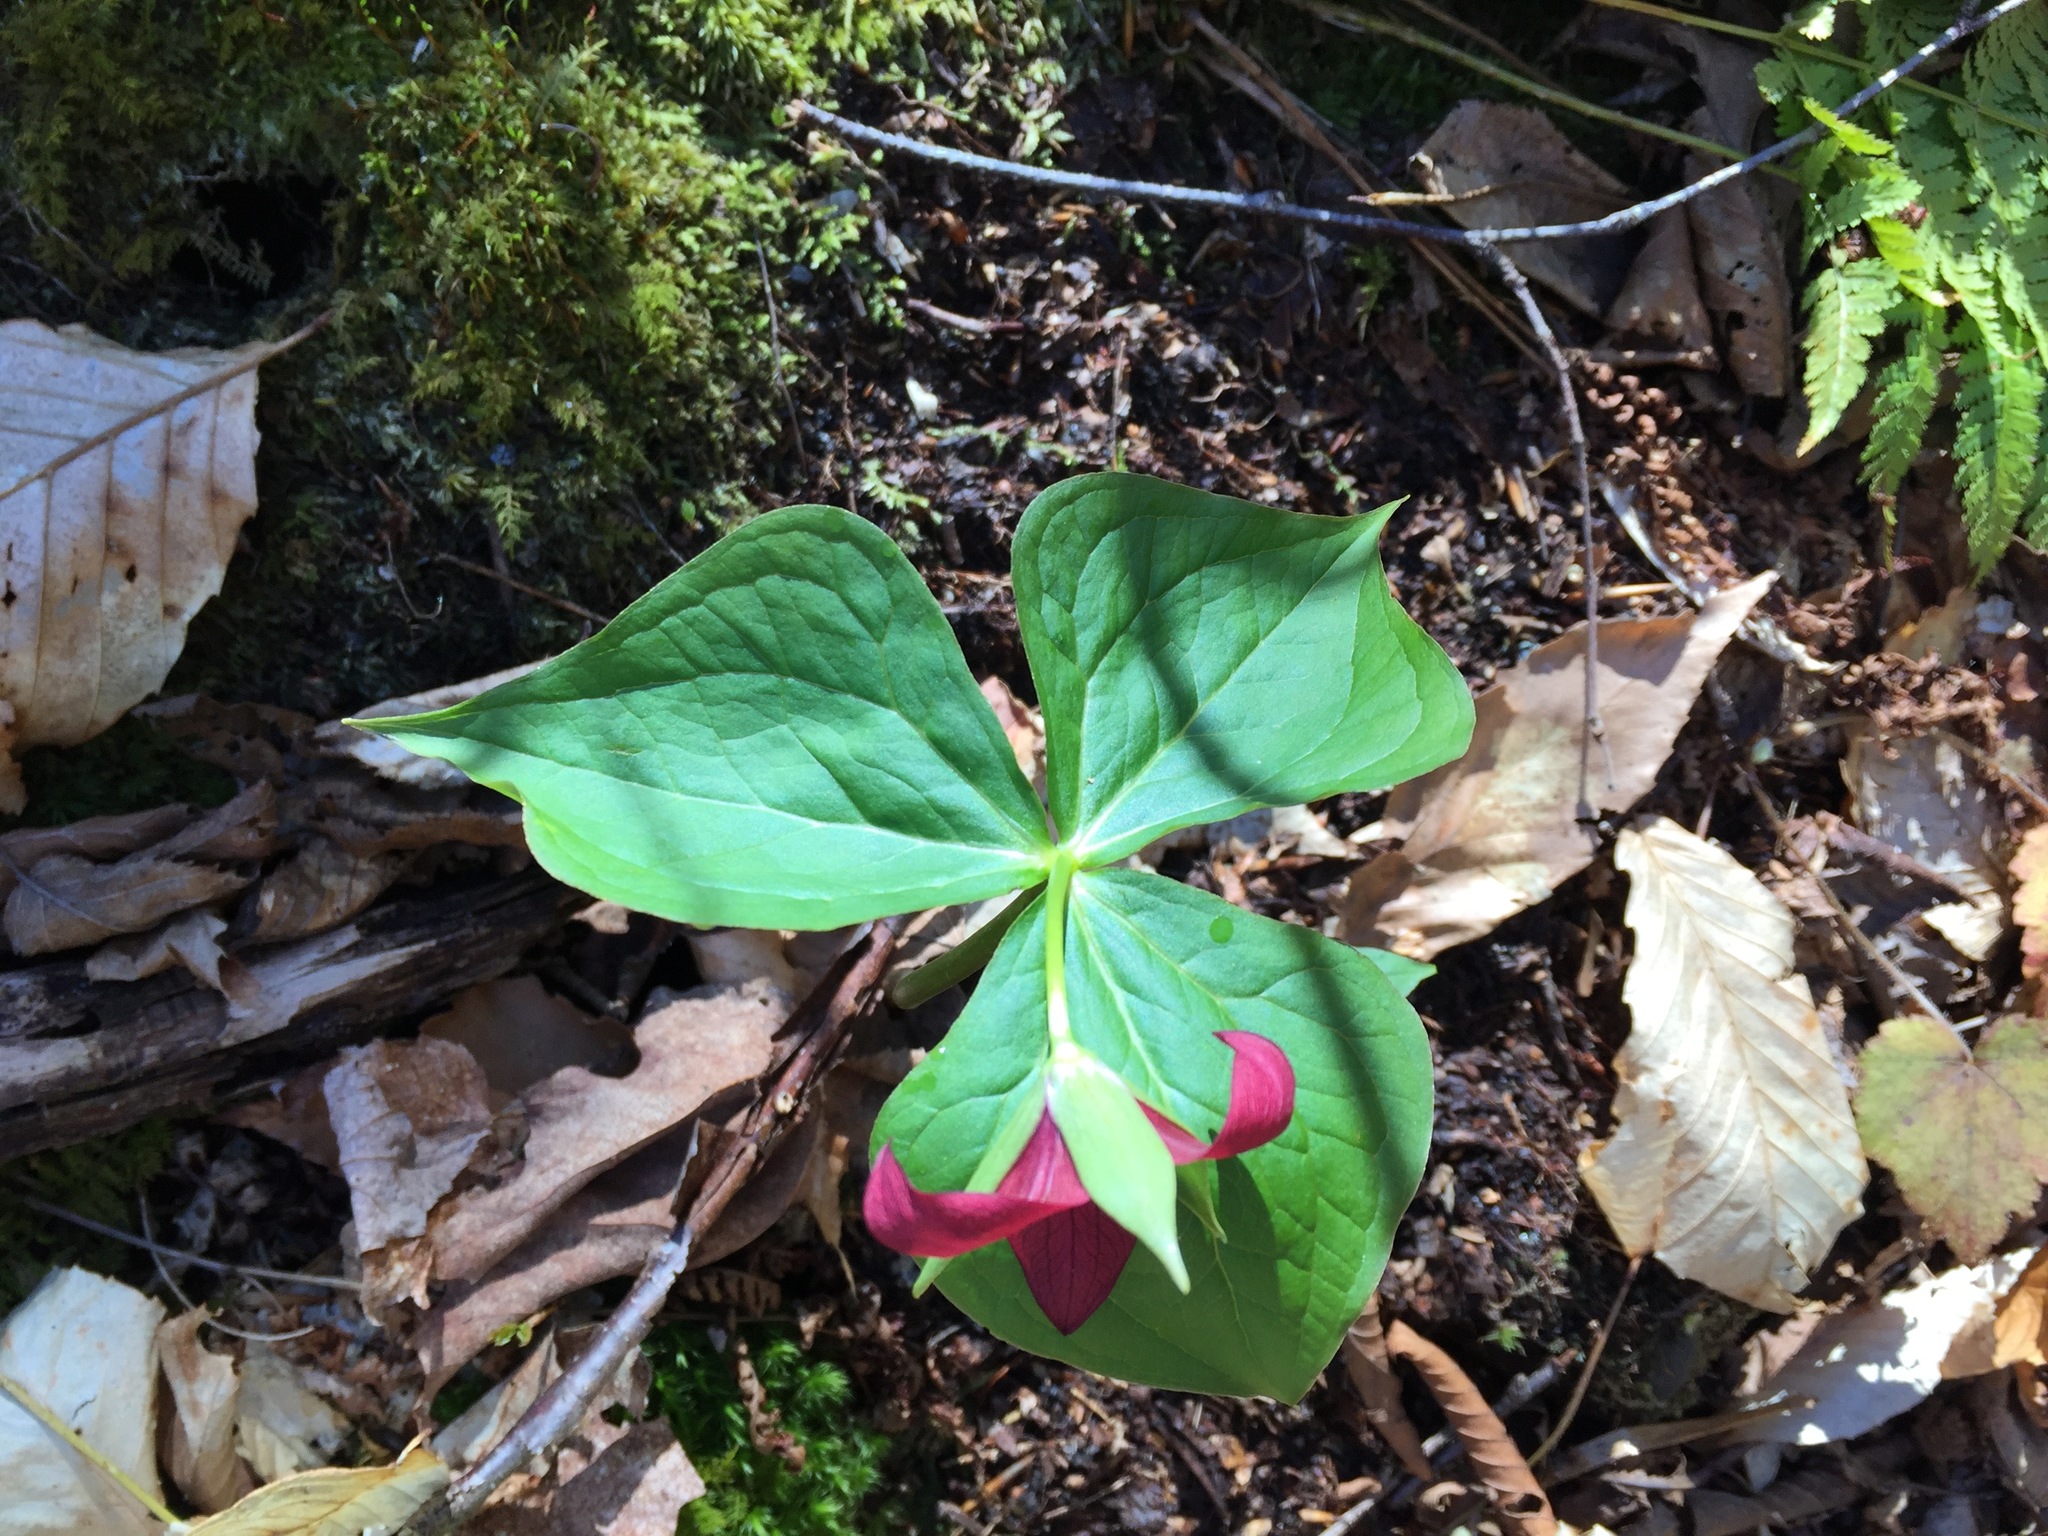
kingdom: Plantae
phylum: Tracheophyta
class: Liliopsida
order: Liliales
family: Melanthiaceae
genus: Trillium
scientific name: Trillium erectum
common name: Purple trillium
